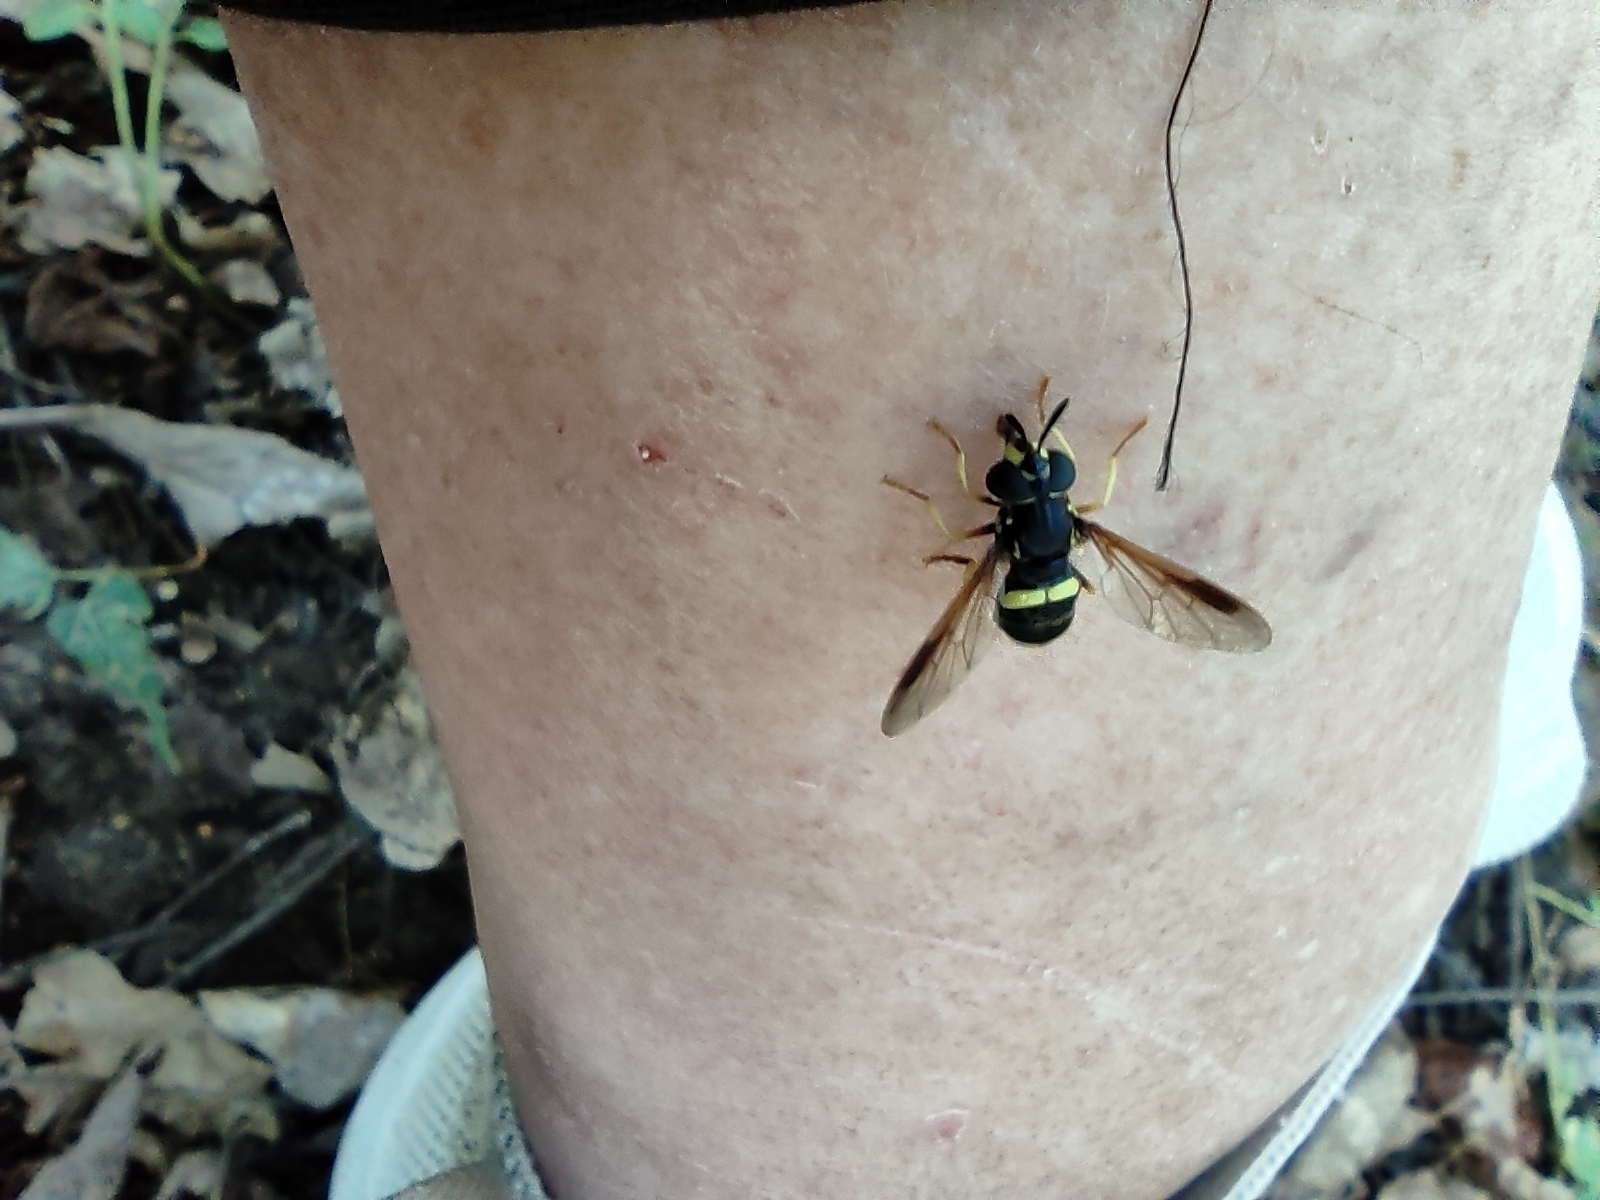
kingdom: Animalia
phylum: Arthropoda
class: Insecta
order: Diptera
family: Syrphidae
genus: Chrysotoxum
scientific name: Chrysotoxum bicincta
